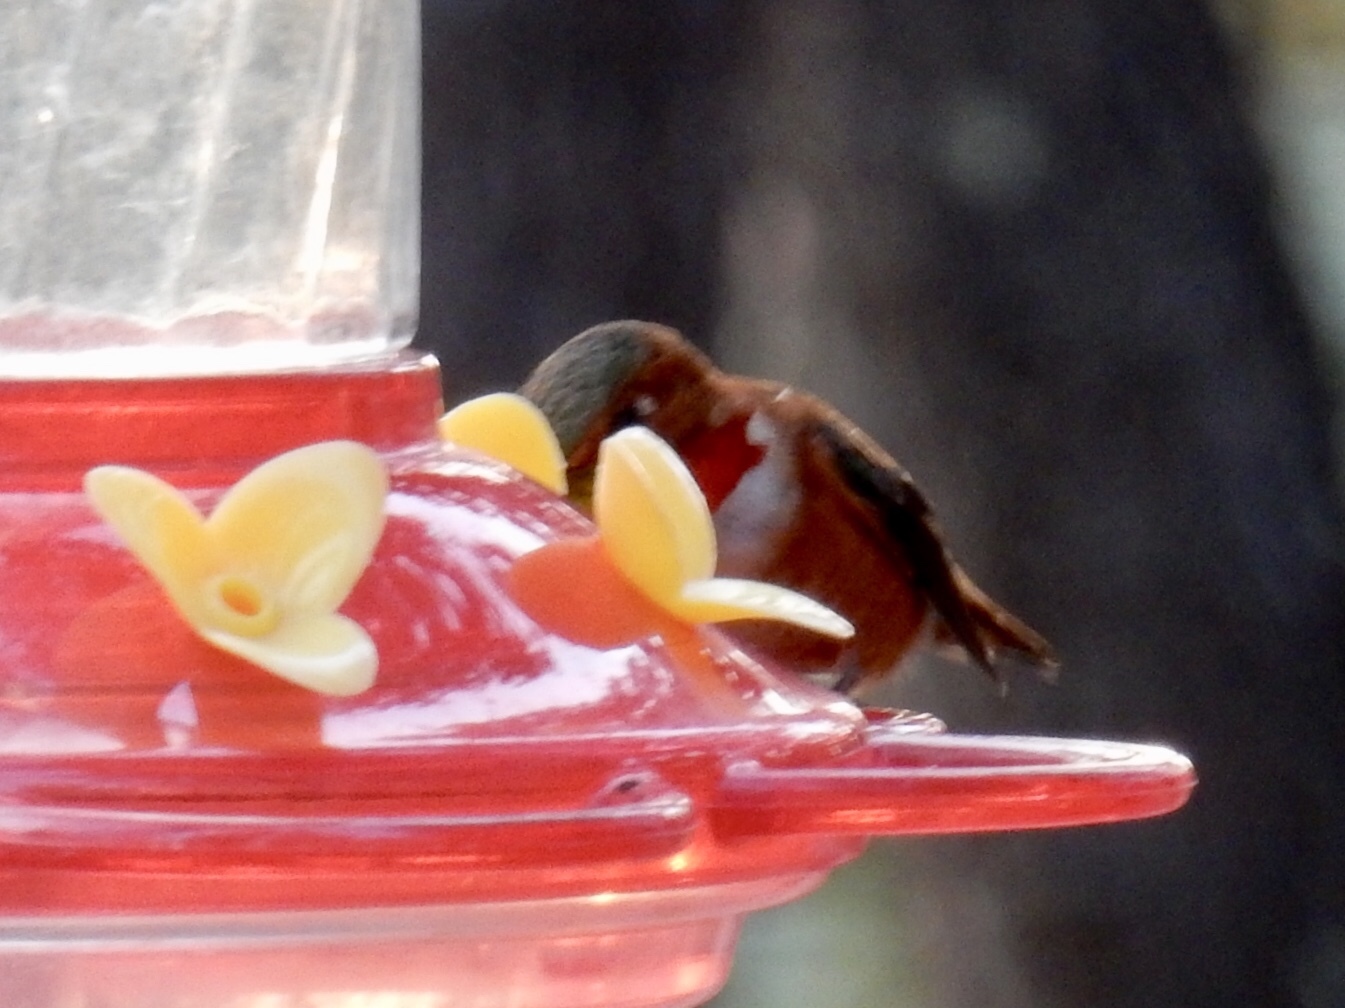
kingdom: Animalia
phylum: Chordata
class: Aves
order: Apodiformes
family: Trochilidae
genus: Selasphorus
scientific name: Selasphorus rufus
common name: Rufous hummingbird
